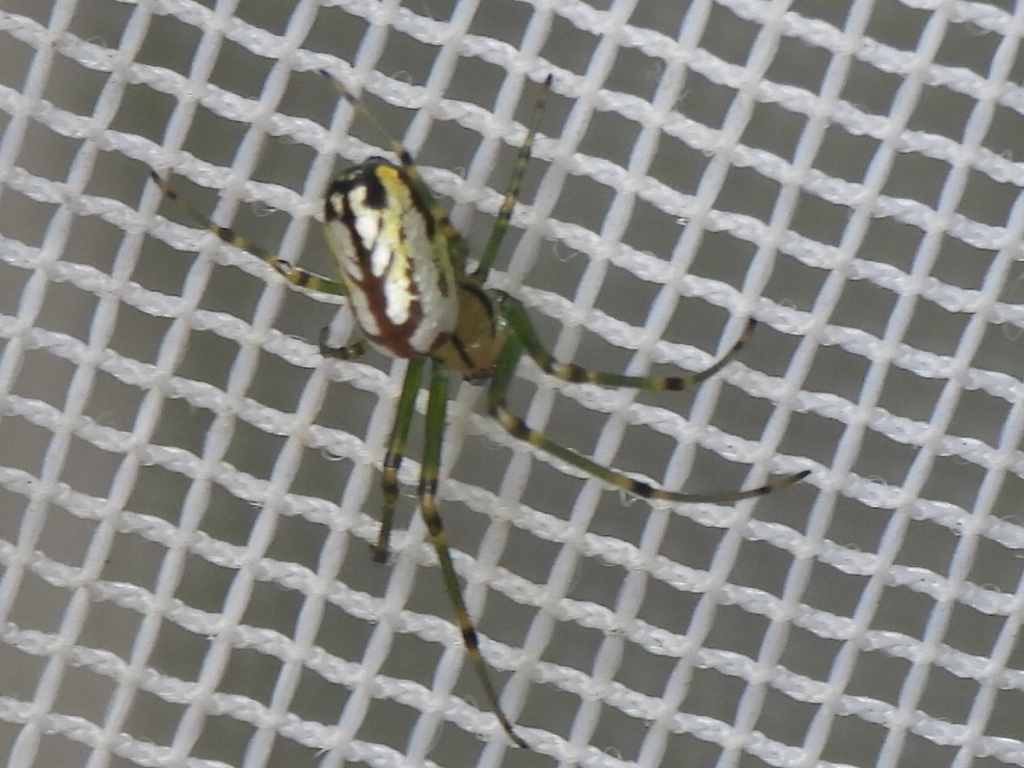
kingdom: Animalia
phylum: Arthropoda
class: Arachnida
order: Araneae
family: Tetragnathidae
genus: Leucauge
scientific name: Leucauge venusta
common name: Longjawed orb weavers
